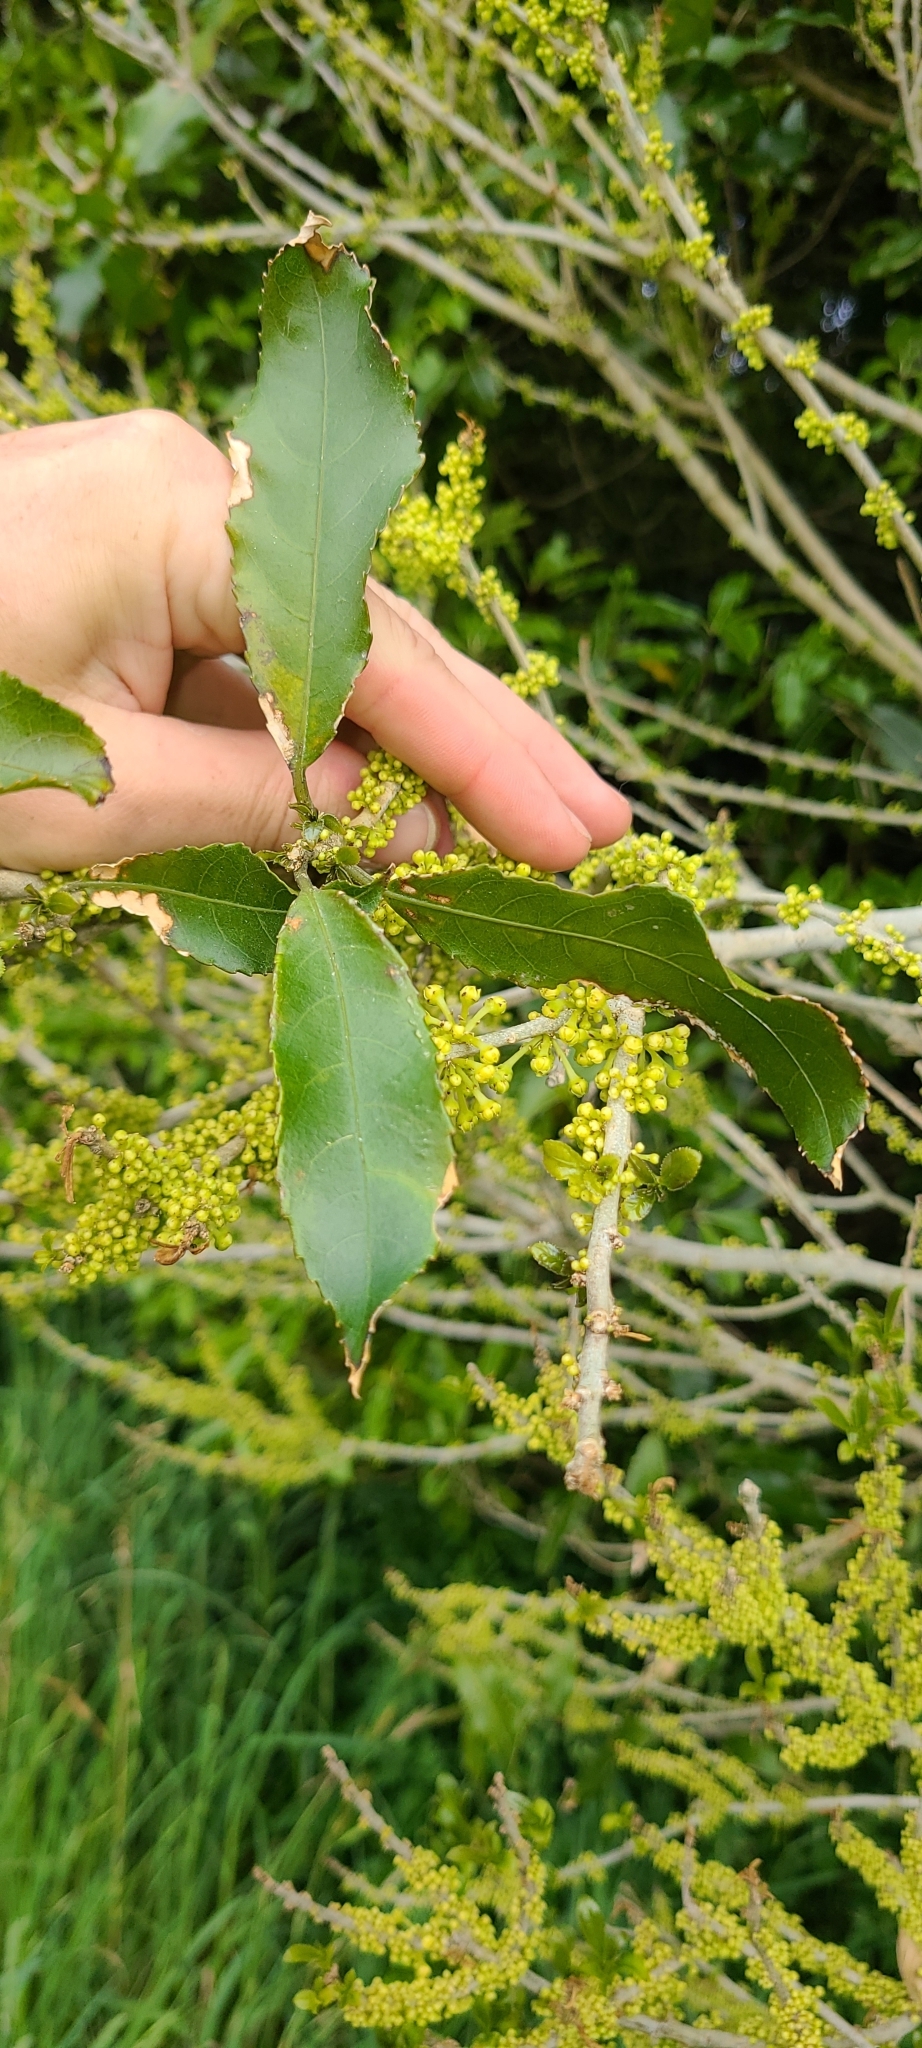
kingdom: Plantae
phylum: Tracheophyta
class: Magnoliopsida
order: Malpighiales
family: Violaceae
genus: Melicytus
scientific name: Melicytus ramiflorus
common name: Mahoe
